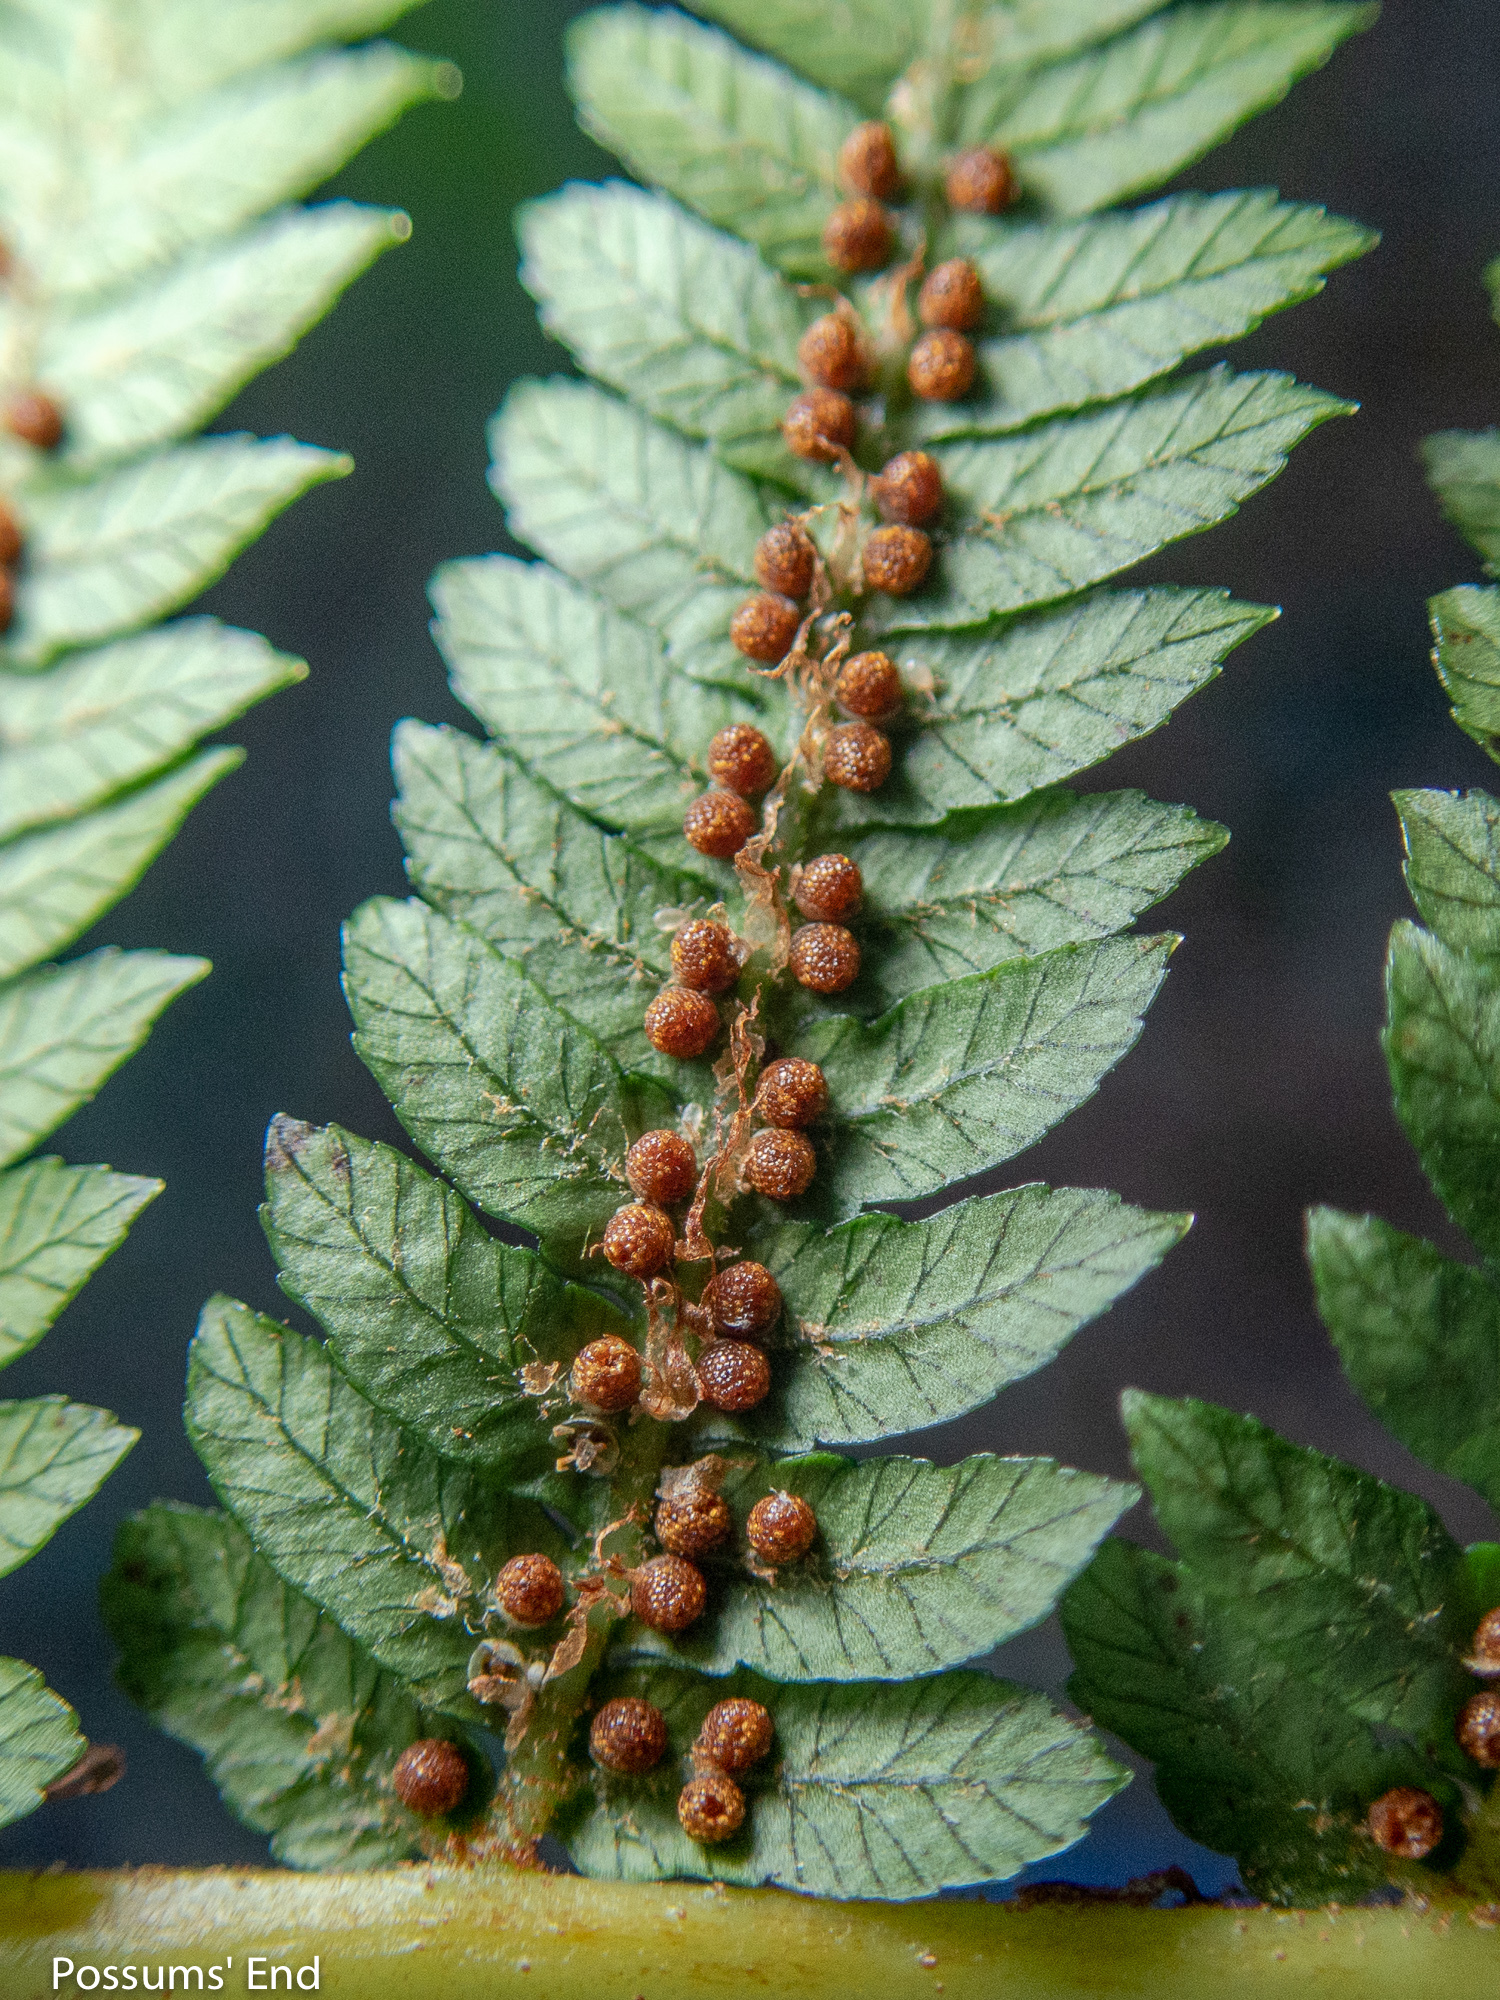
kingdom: Plantae
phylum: Tracheophyta
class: Polypodiopsida
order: Cyatheales
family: Cyatheaceae
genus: Alsophila
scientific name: Alsophila smithii
